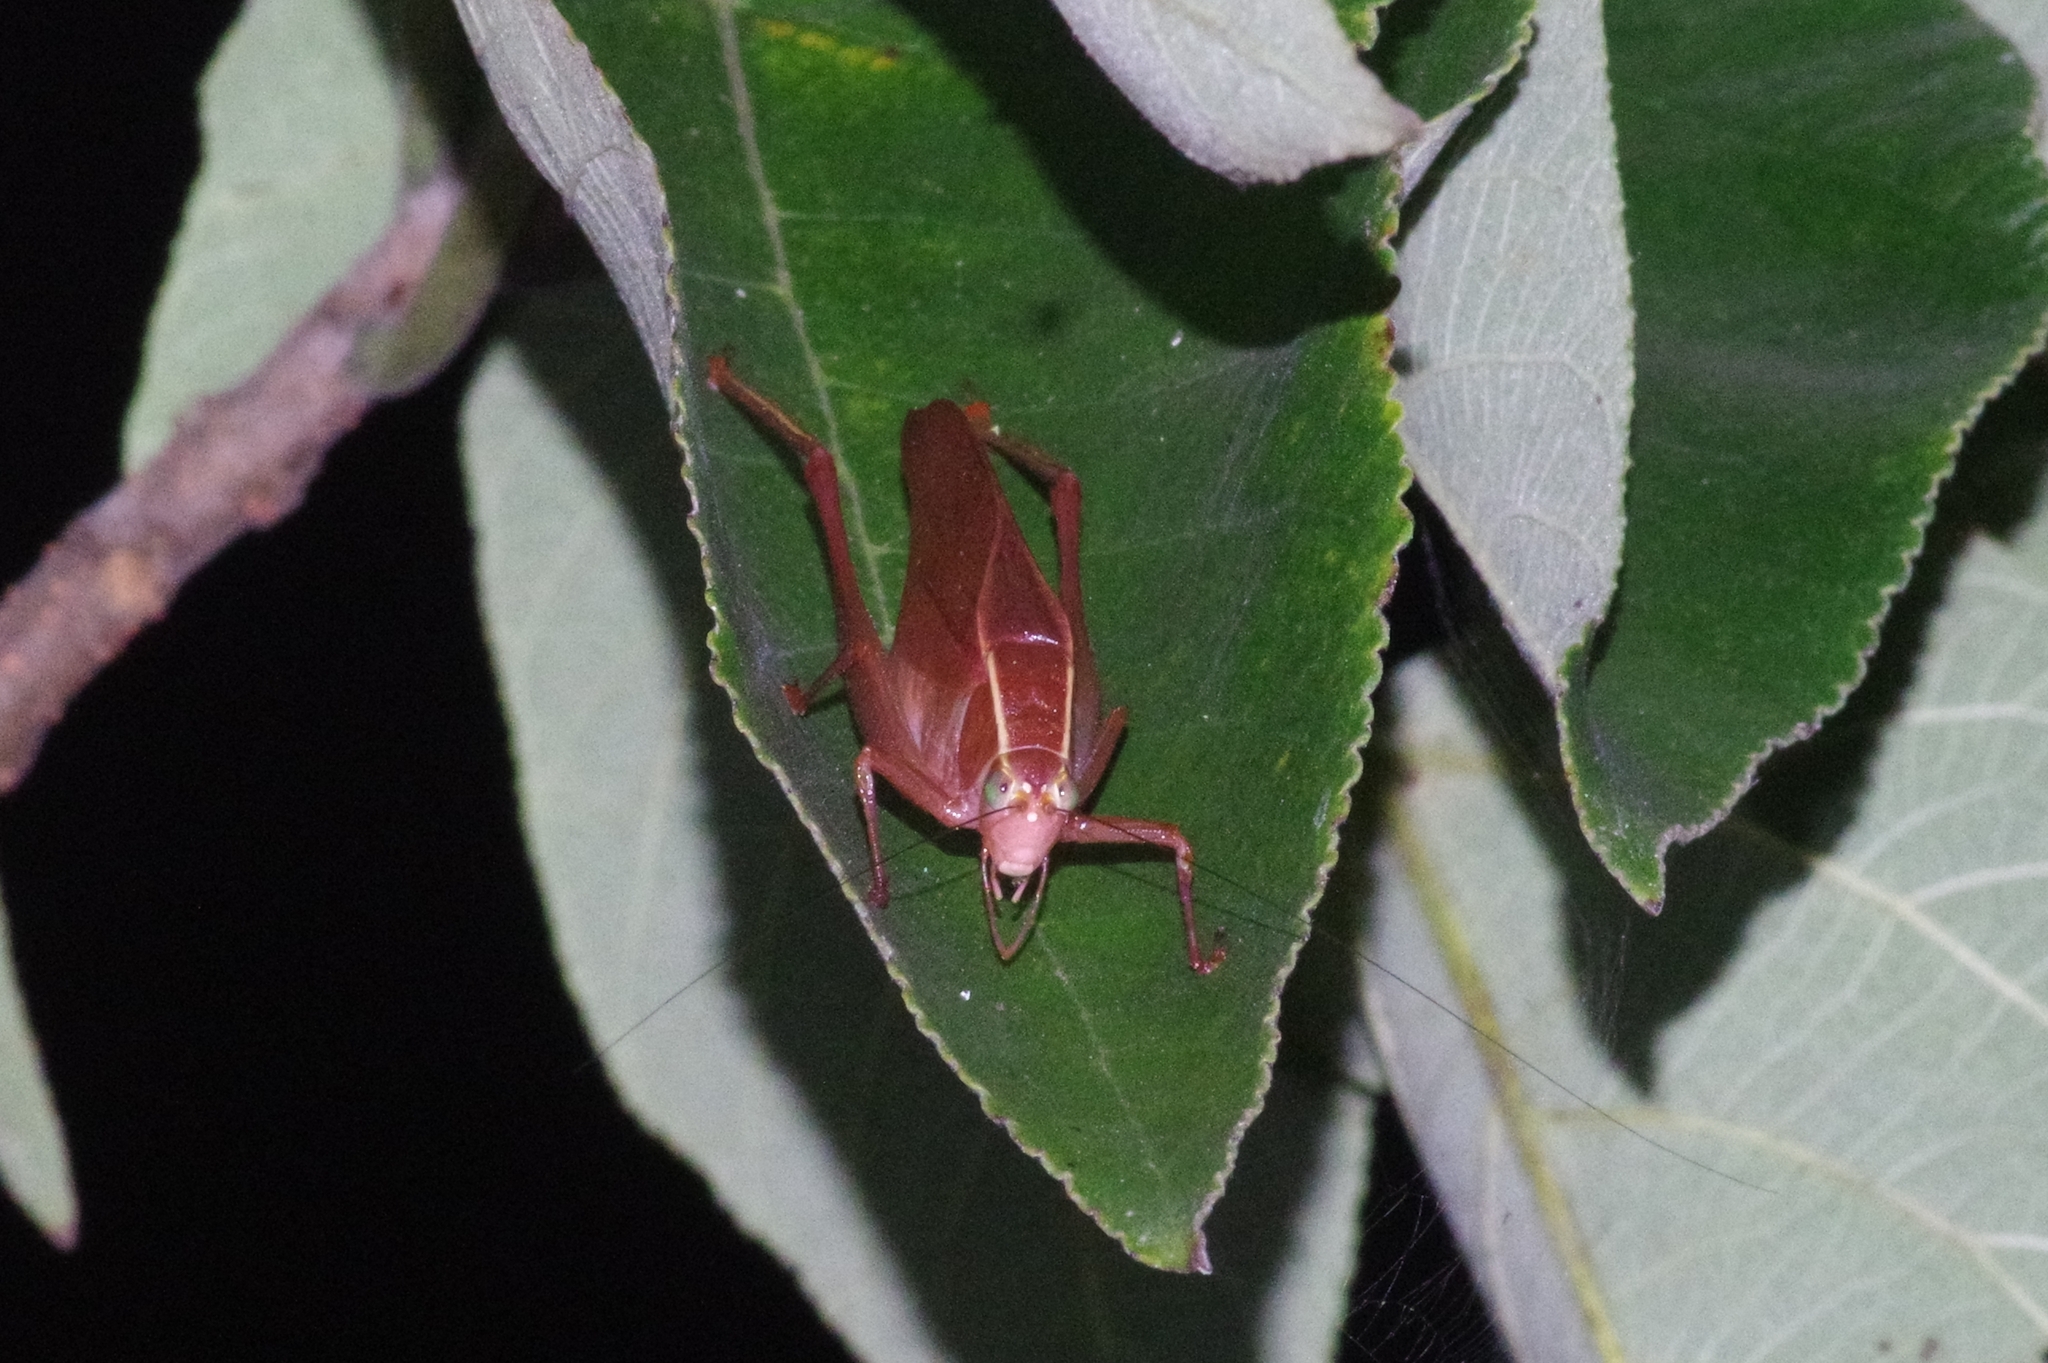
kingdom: Animalia
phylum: Arthropoda
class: Insecta
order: Orthoptera
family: Tettigoniidae
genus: Isopsera
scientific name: Isopsera denticulata
